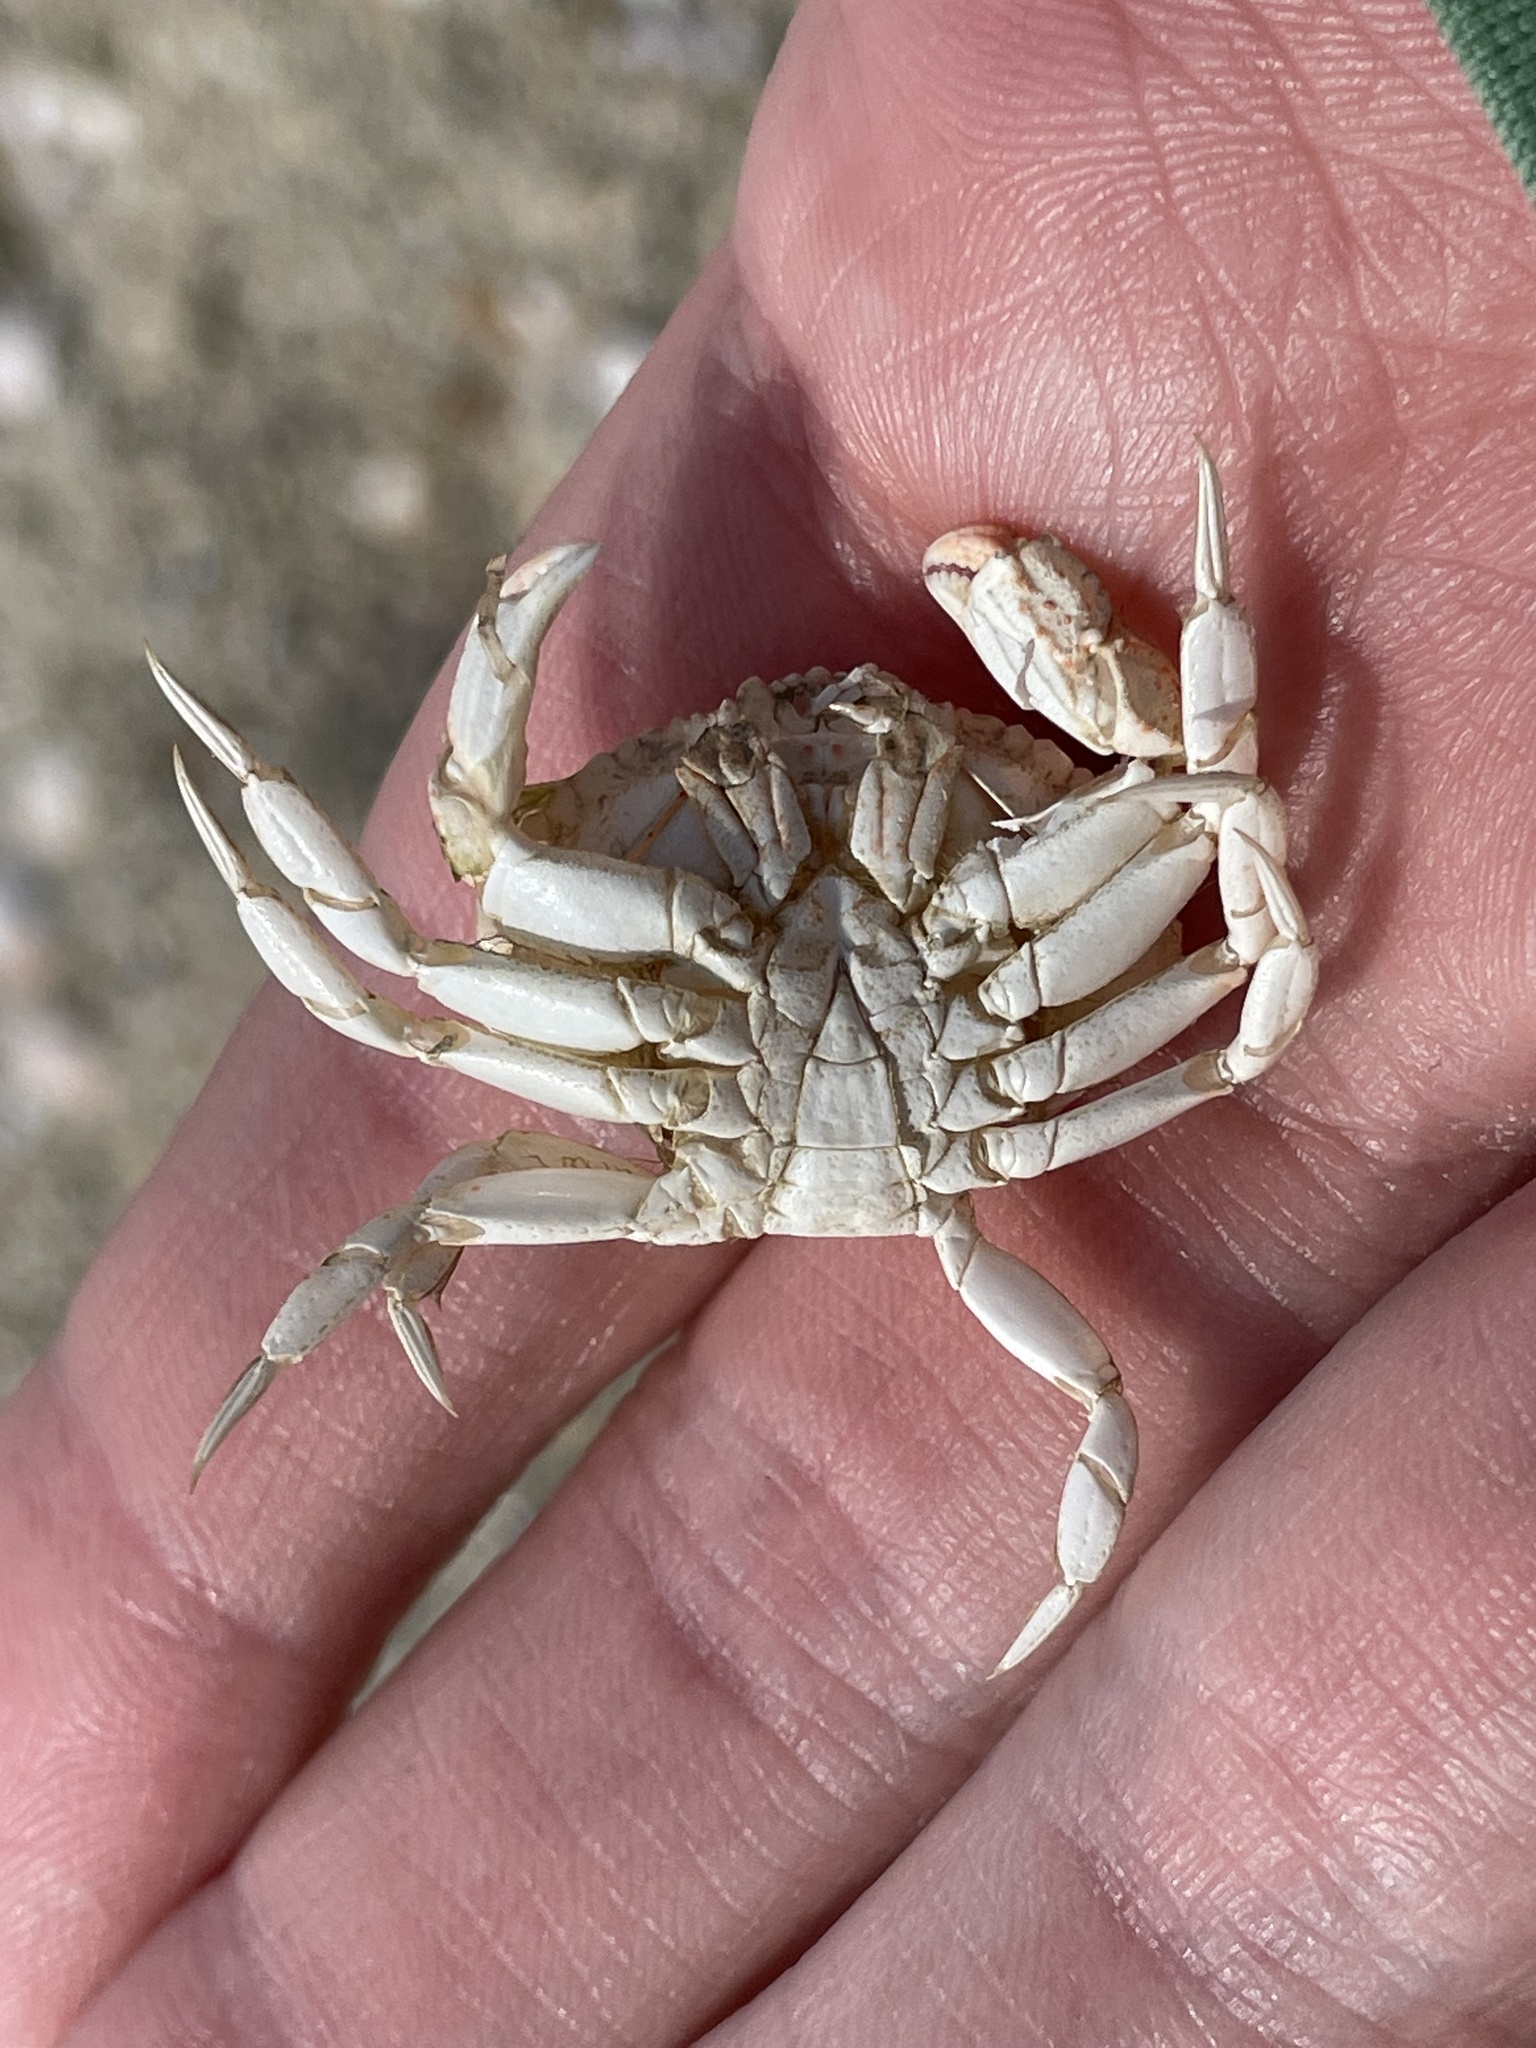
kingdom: Animalia
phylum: Arthropoda
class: Malacostraca
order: Decapoda
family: Cancridae
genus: Cancer
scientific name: Cancer irroratus
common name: Atlantic rock crab
